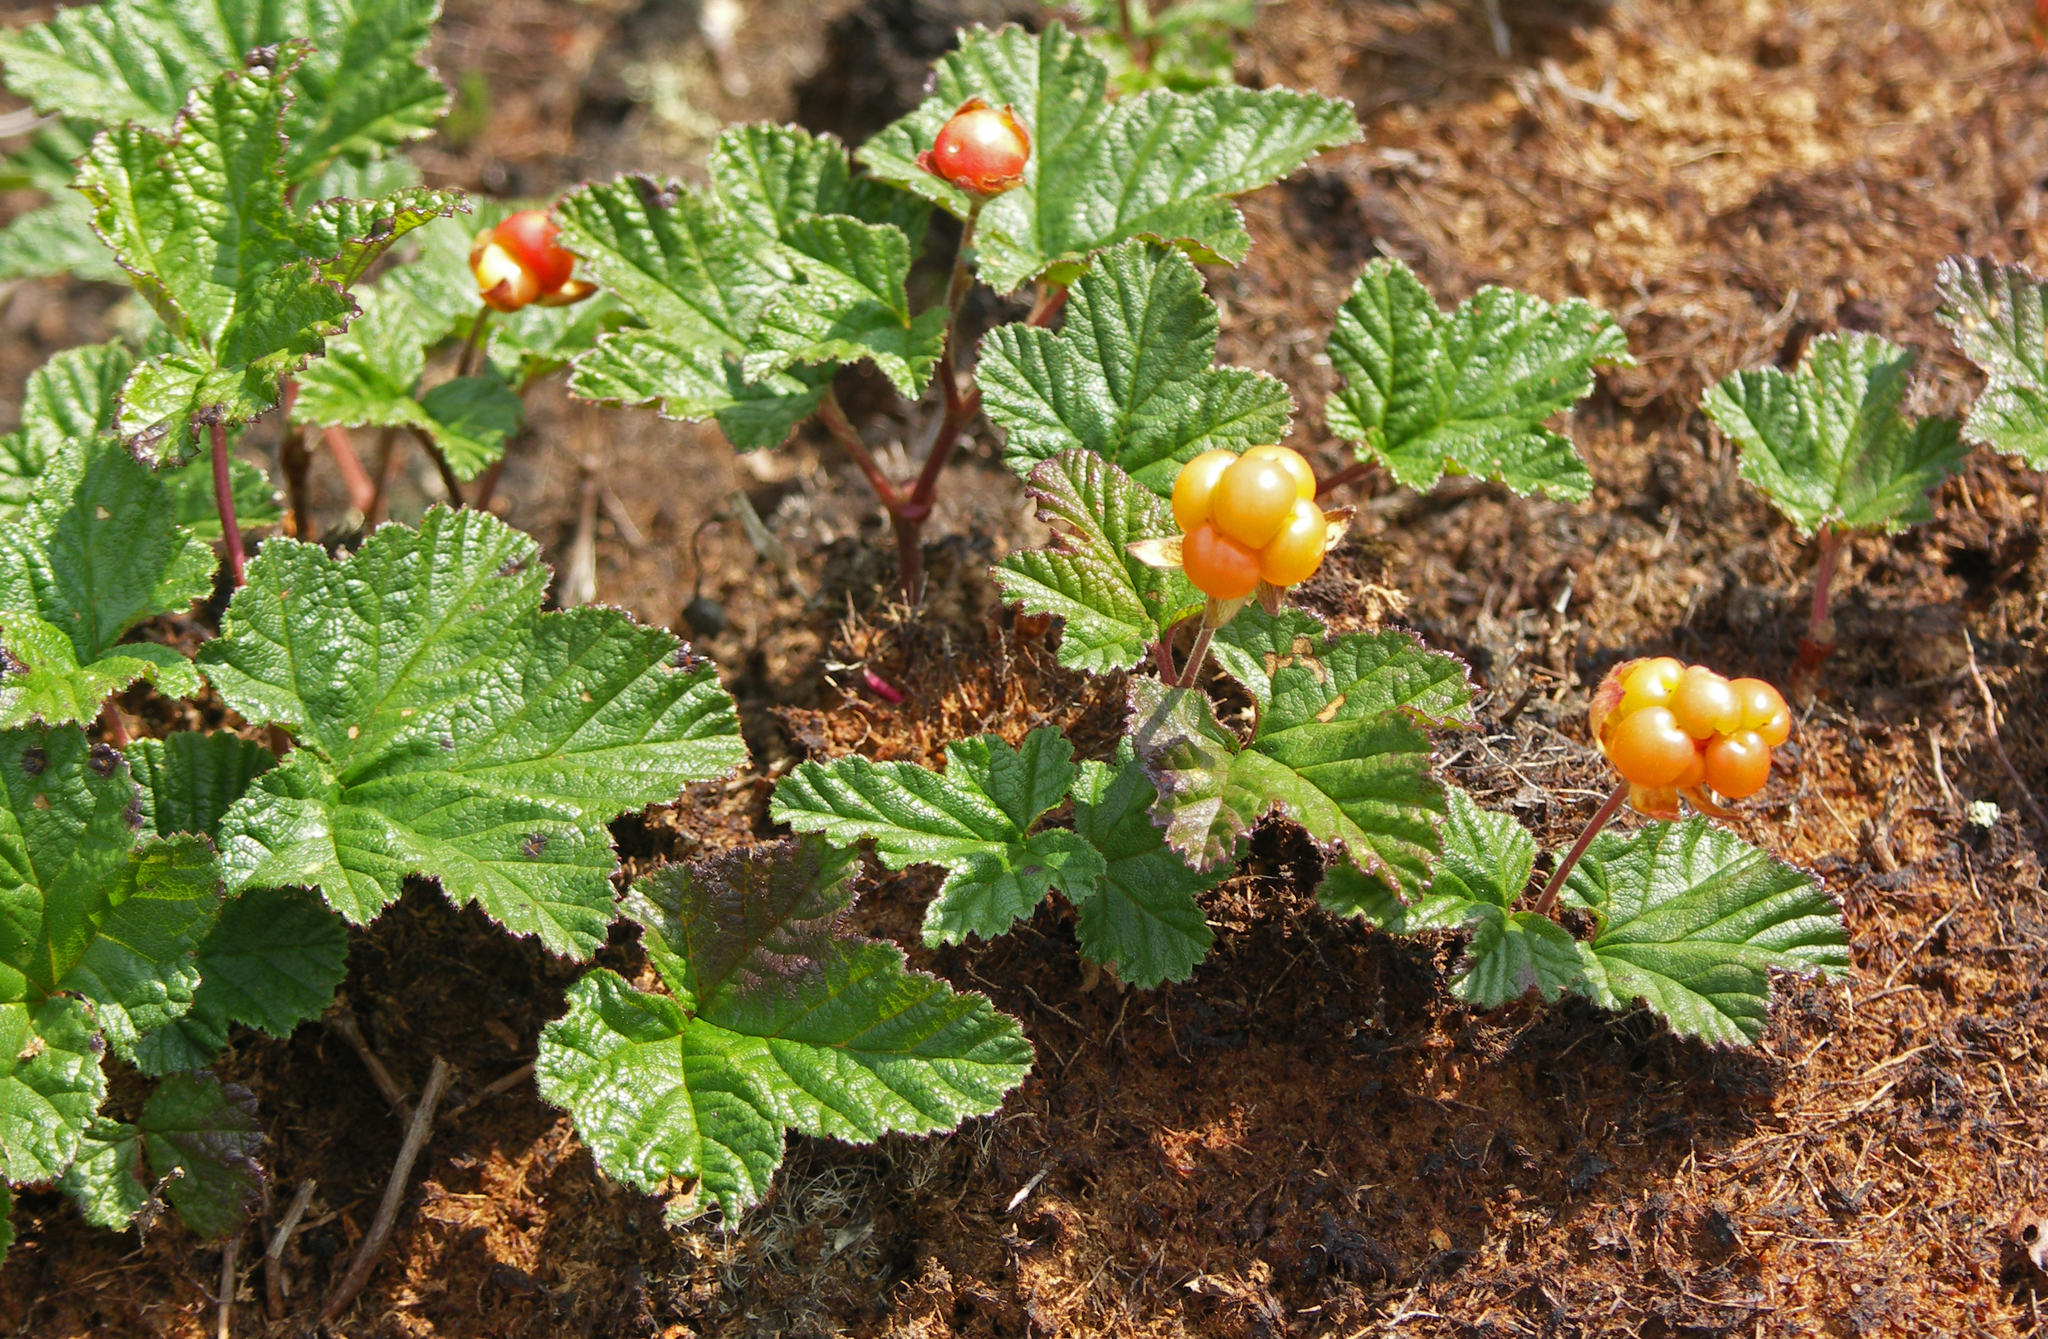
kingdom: Plantae
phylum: Tracheophyta
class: Magnoliopsida
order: Rosales
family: Rosaceae
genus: Rubus
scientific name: Rubus chamaemorus
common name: Cloudberry
